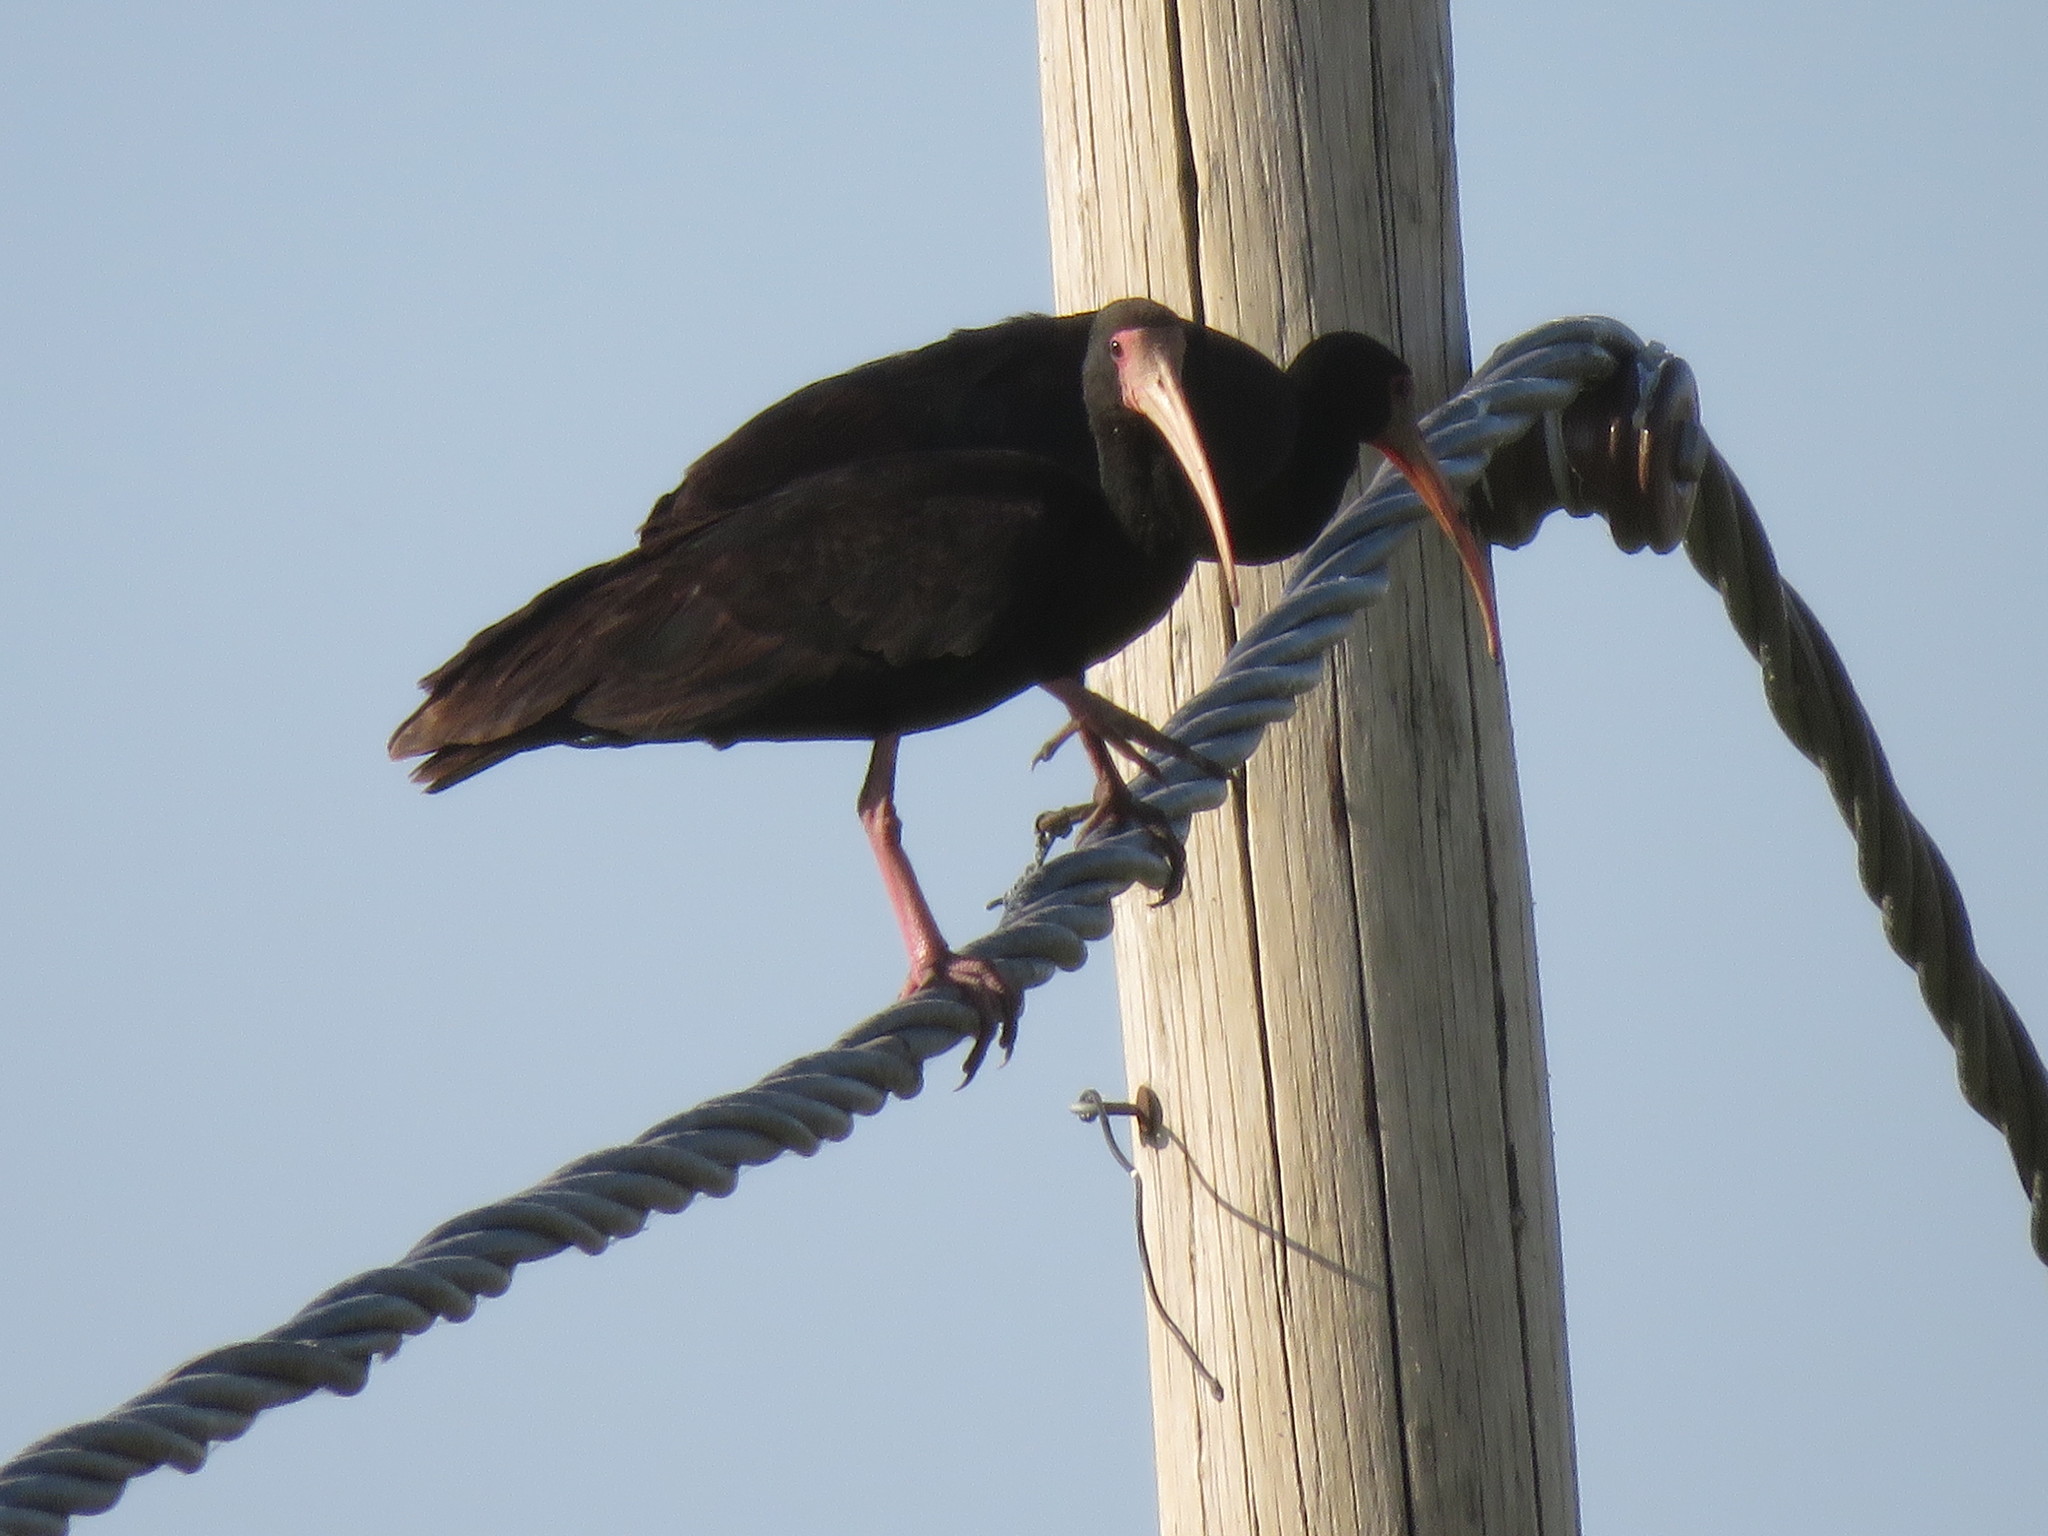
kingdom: Animalia
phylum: Chordata
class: Aves
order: Pelecaniformes
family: Threskiornithidae
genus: Phimosus
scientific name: Phimosus infuscatus
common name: Bare-faced ibis
